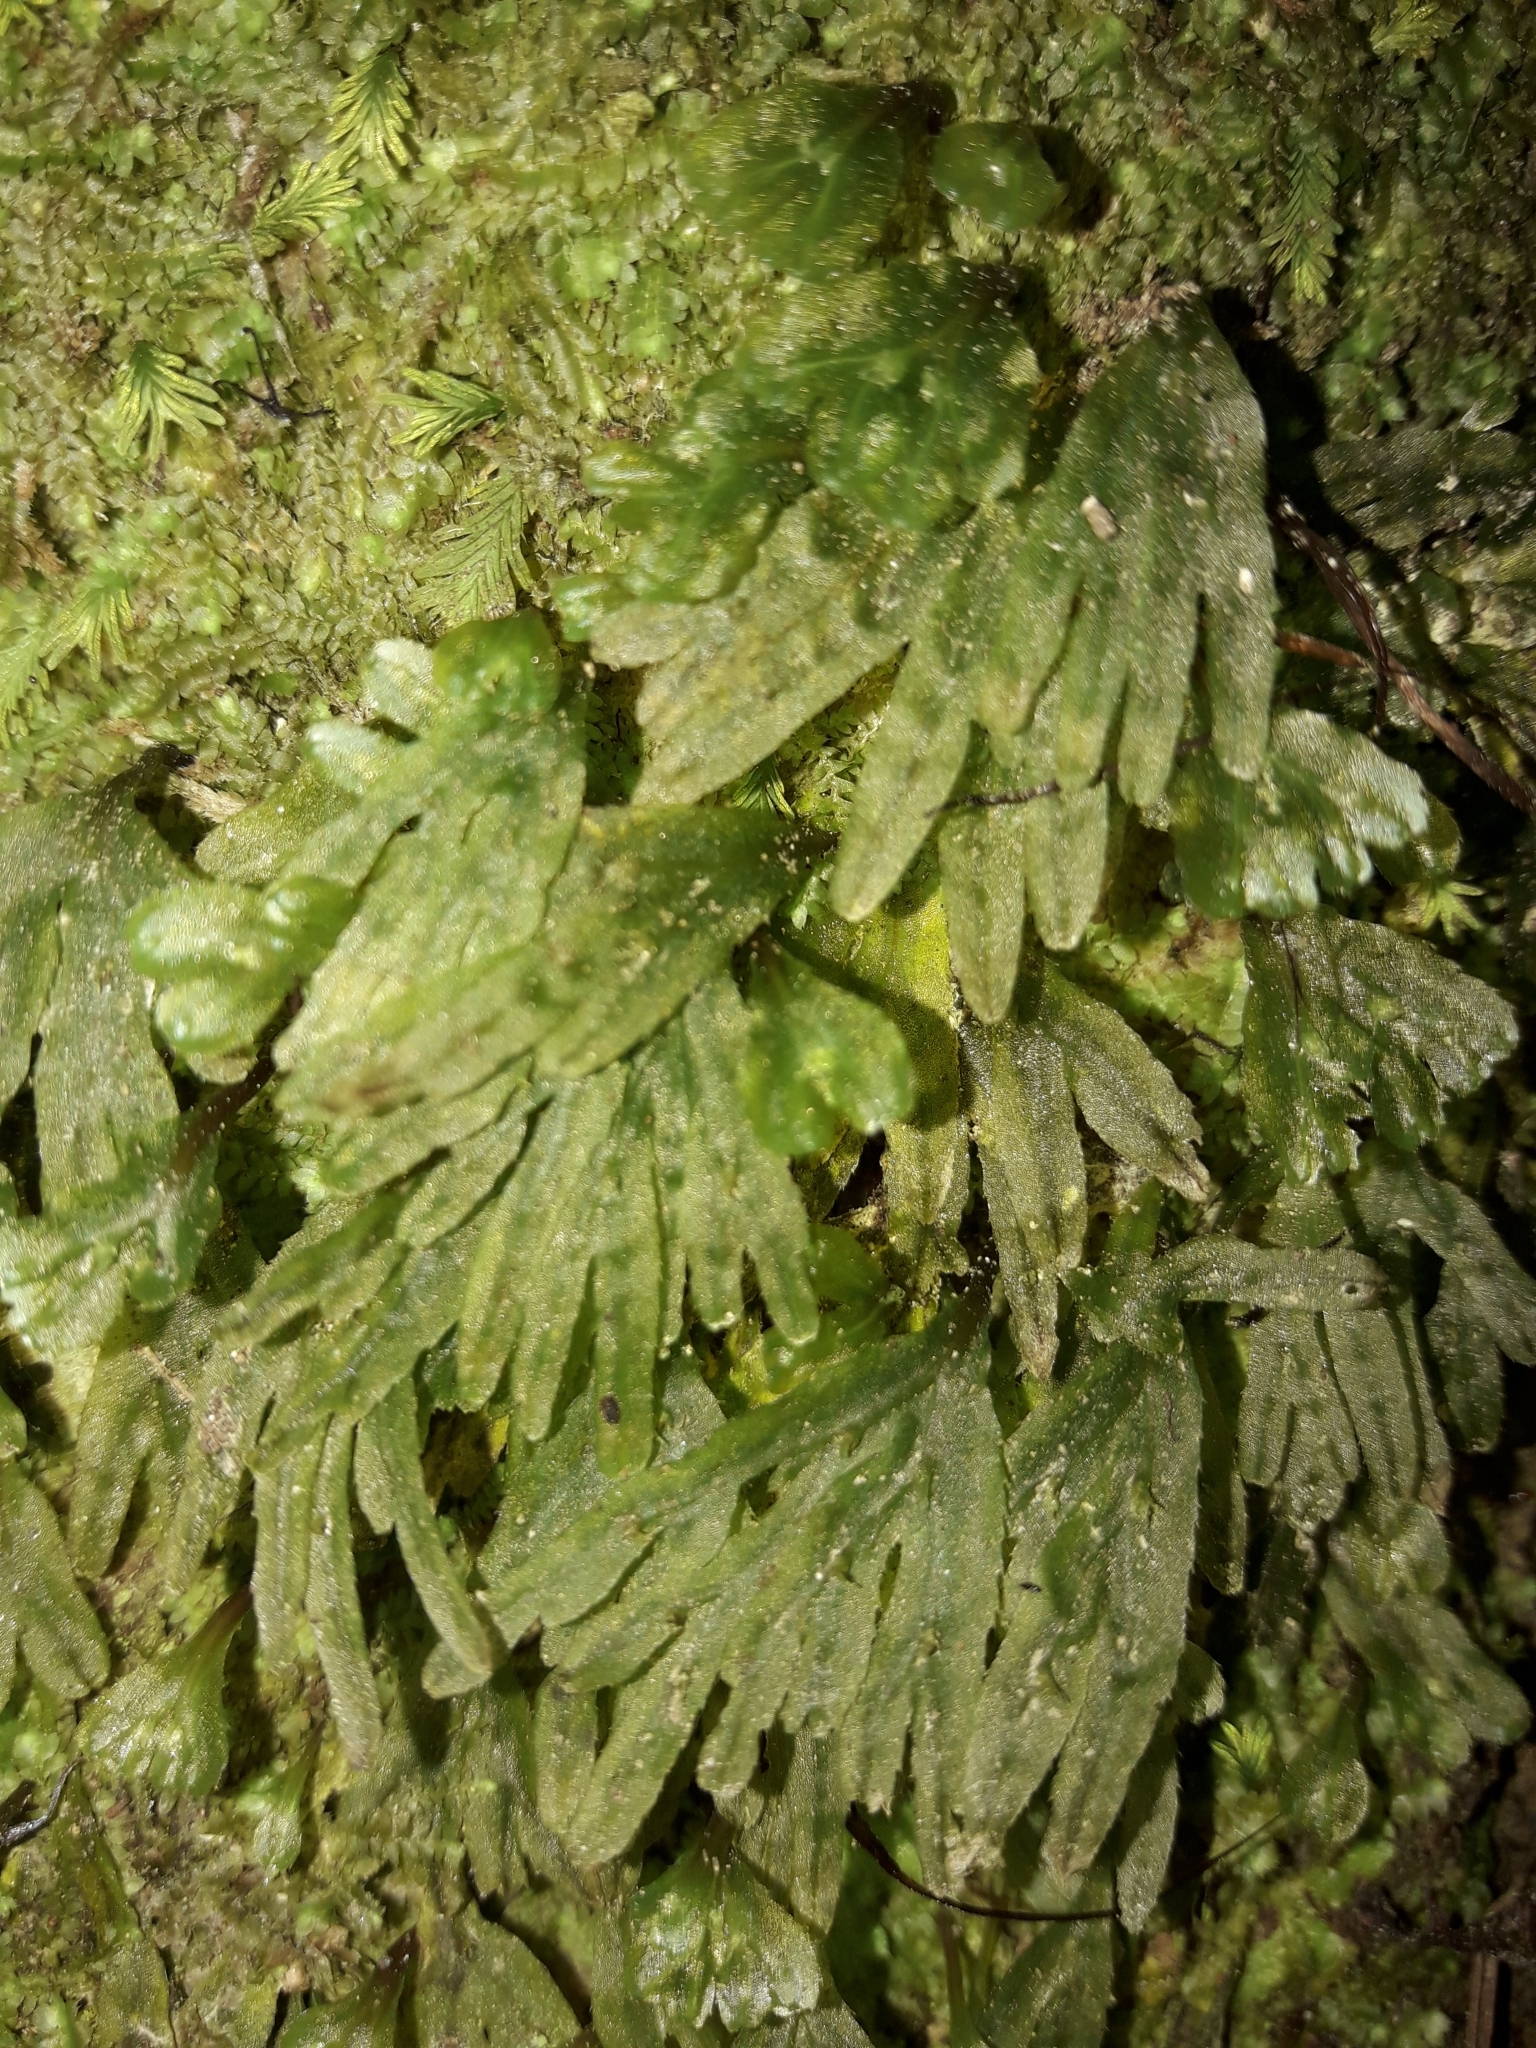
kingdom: Plantae
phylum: Marchantiophyta
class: Jungermanniopsida
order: Pallaviciniales
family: Pallaviciniaceae
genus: Symphyogyna
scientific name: Symphyogyna hymenophyllum
